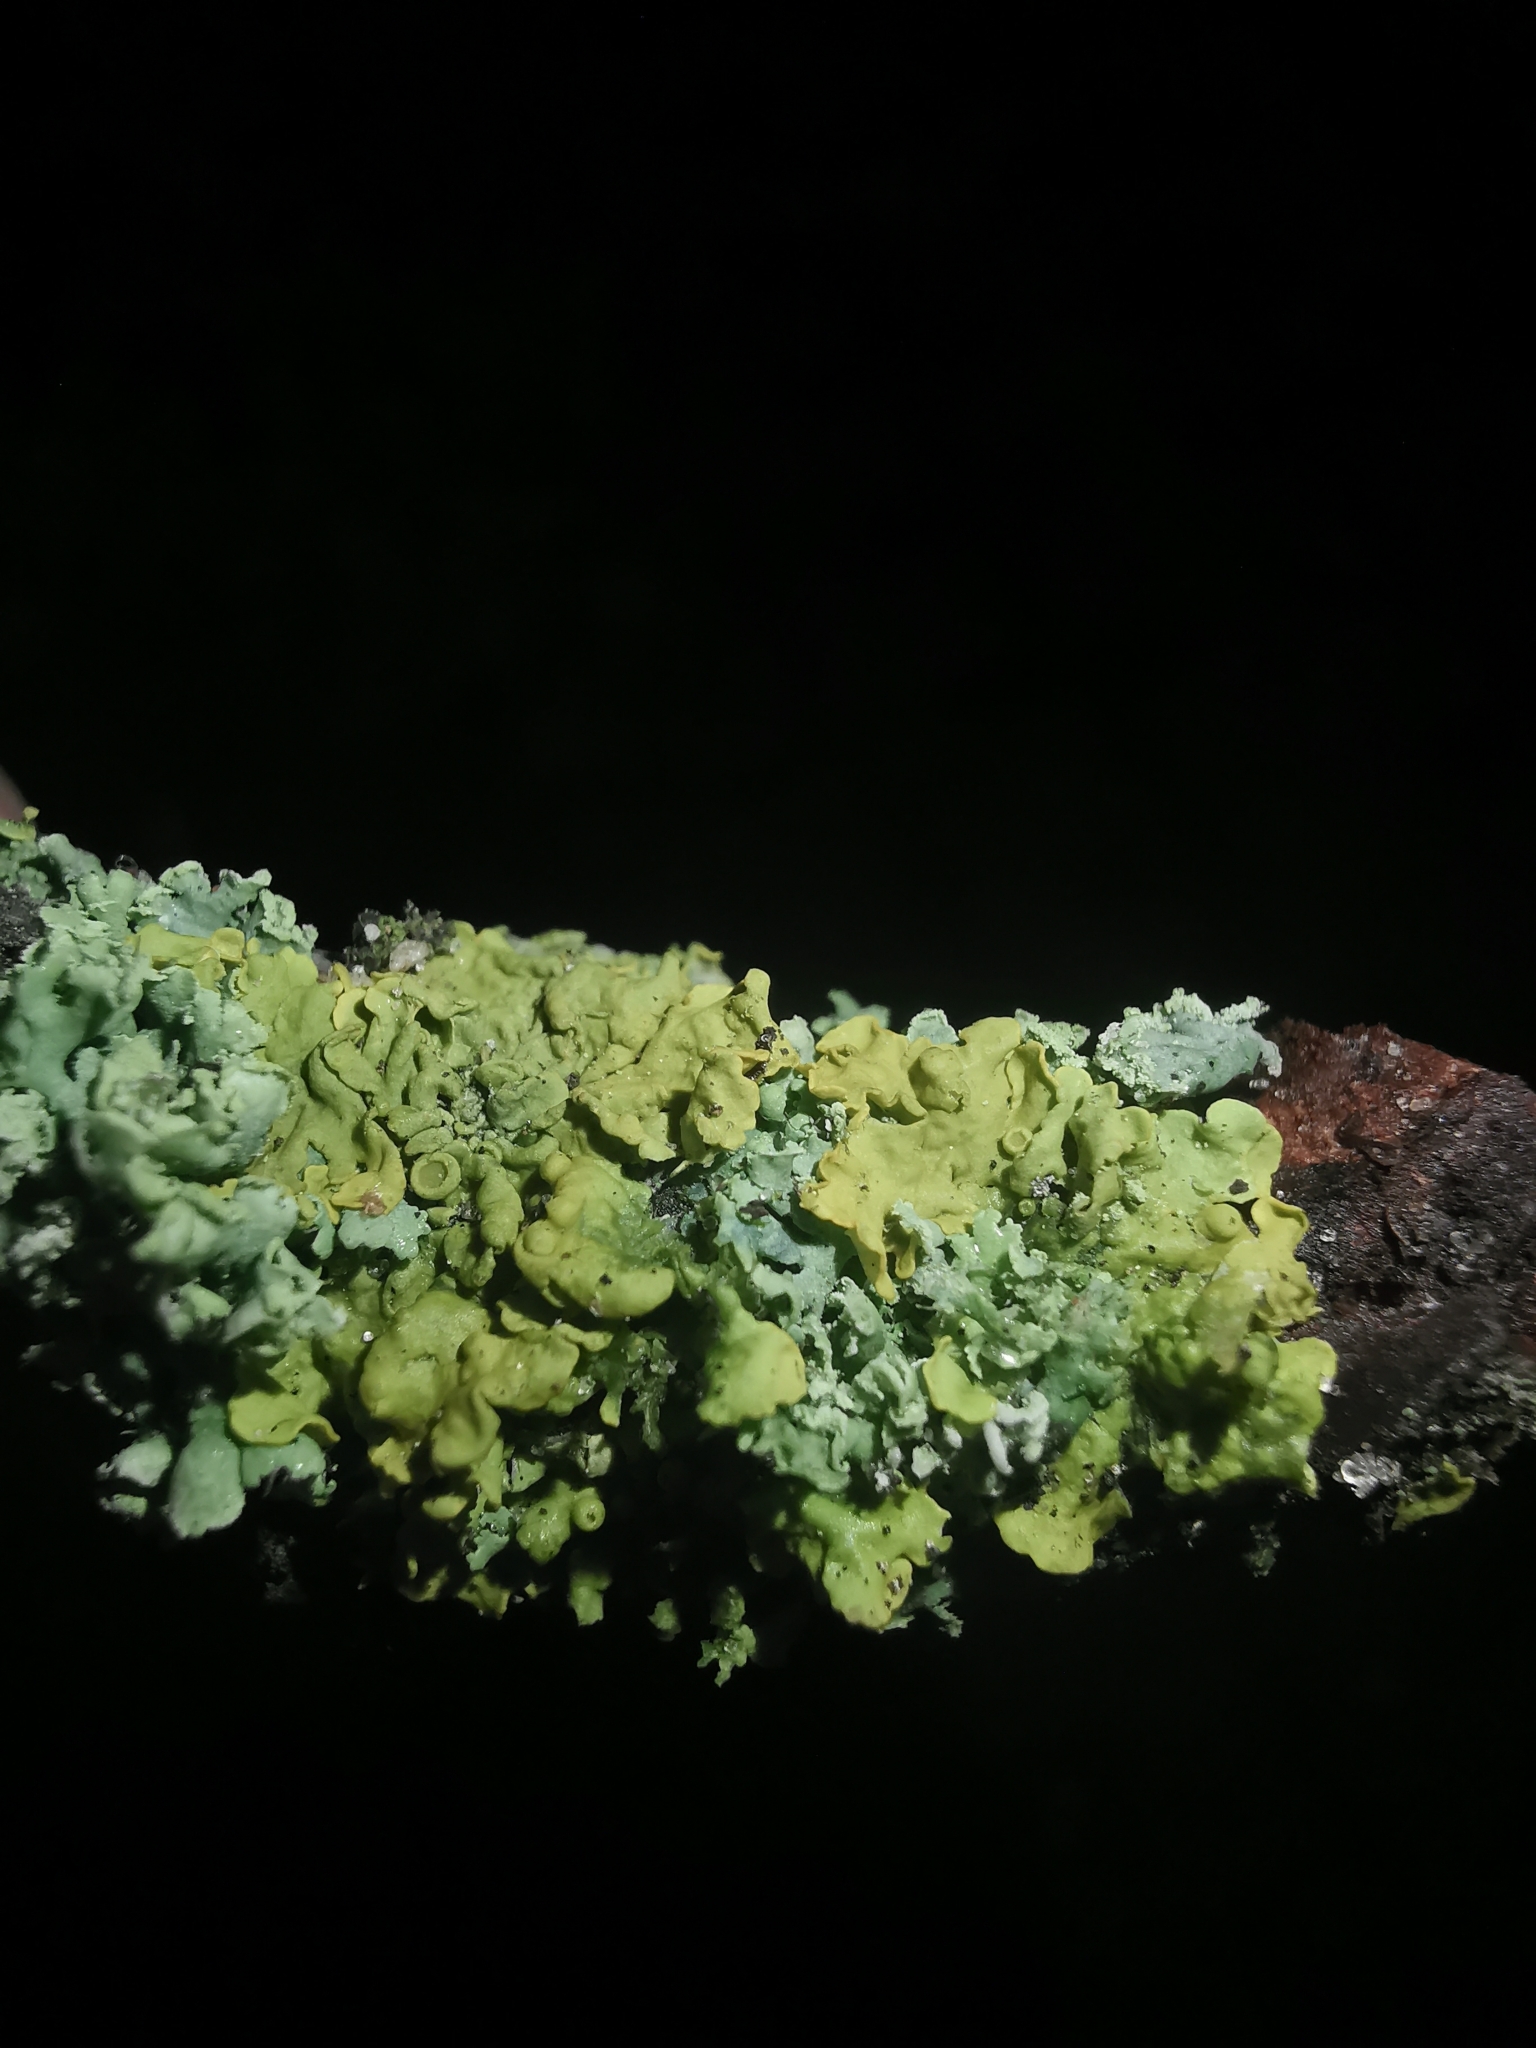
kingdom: Fungi
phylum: Ascomycota
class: Lecanoromycetes
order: Teloschistales
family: Teloschistaceae
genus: Xanthoria
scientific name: Xanthoria parietina
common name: Common orange lichen
